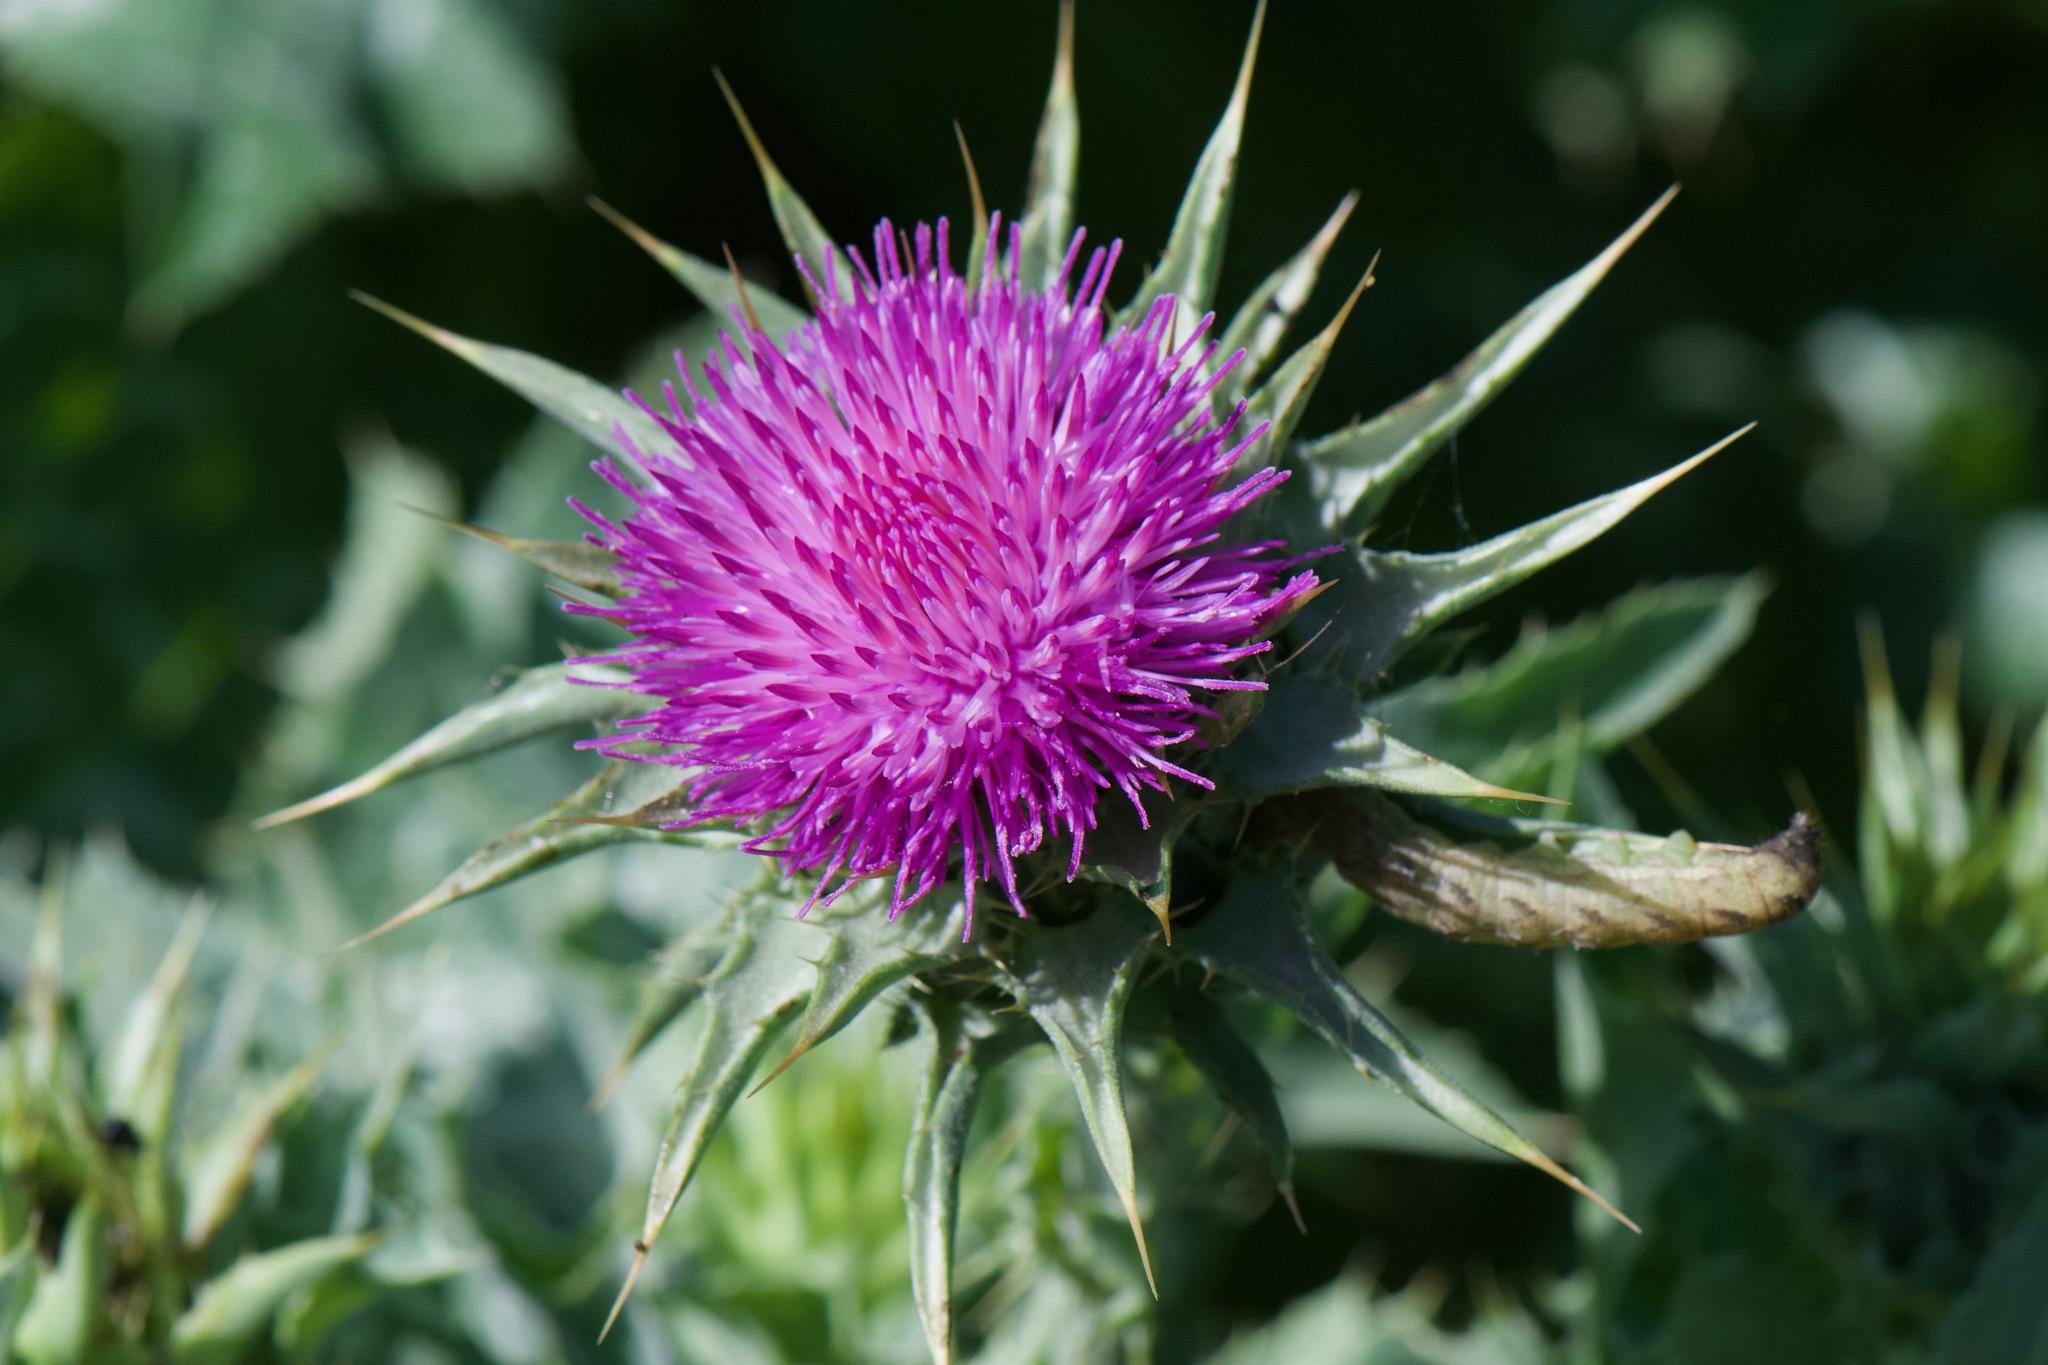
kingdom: Plantae
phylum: Tracheophyta
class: Magnoliopsida
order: Asterales
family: Asteraceae
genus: Silybum
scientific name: Silybum marianum
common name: Milk thistle
